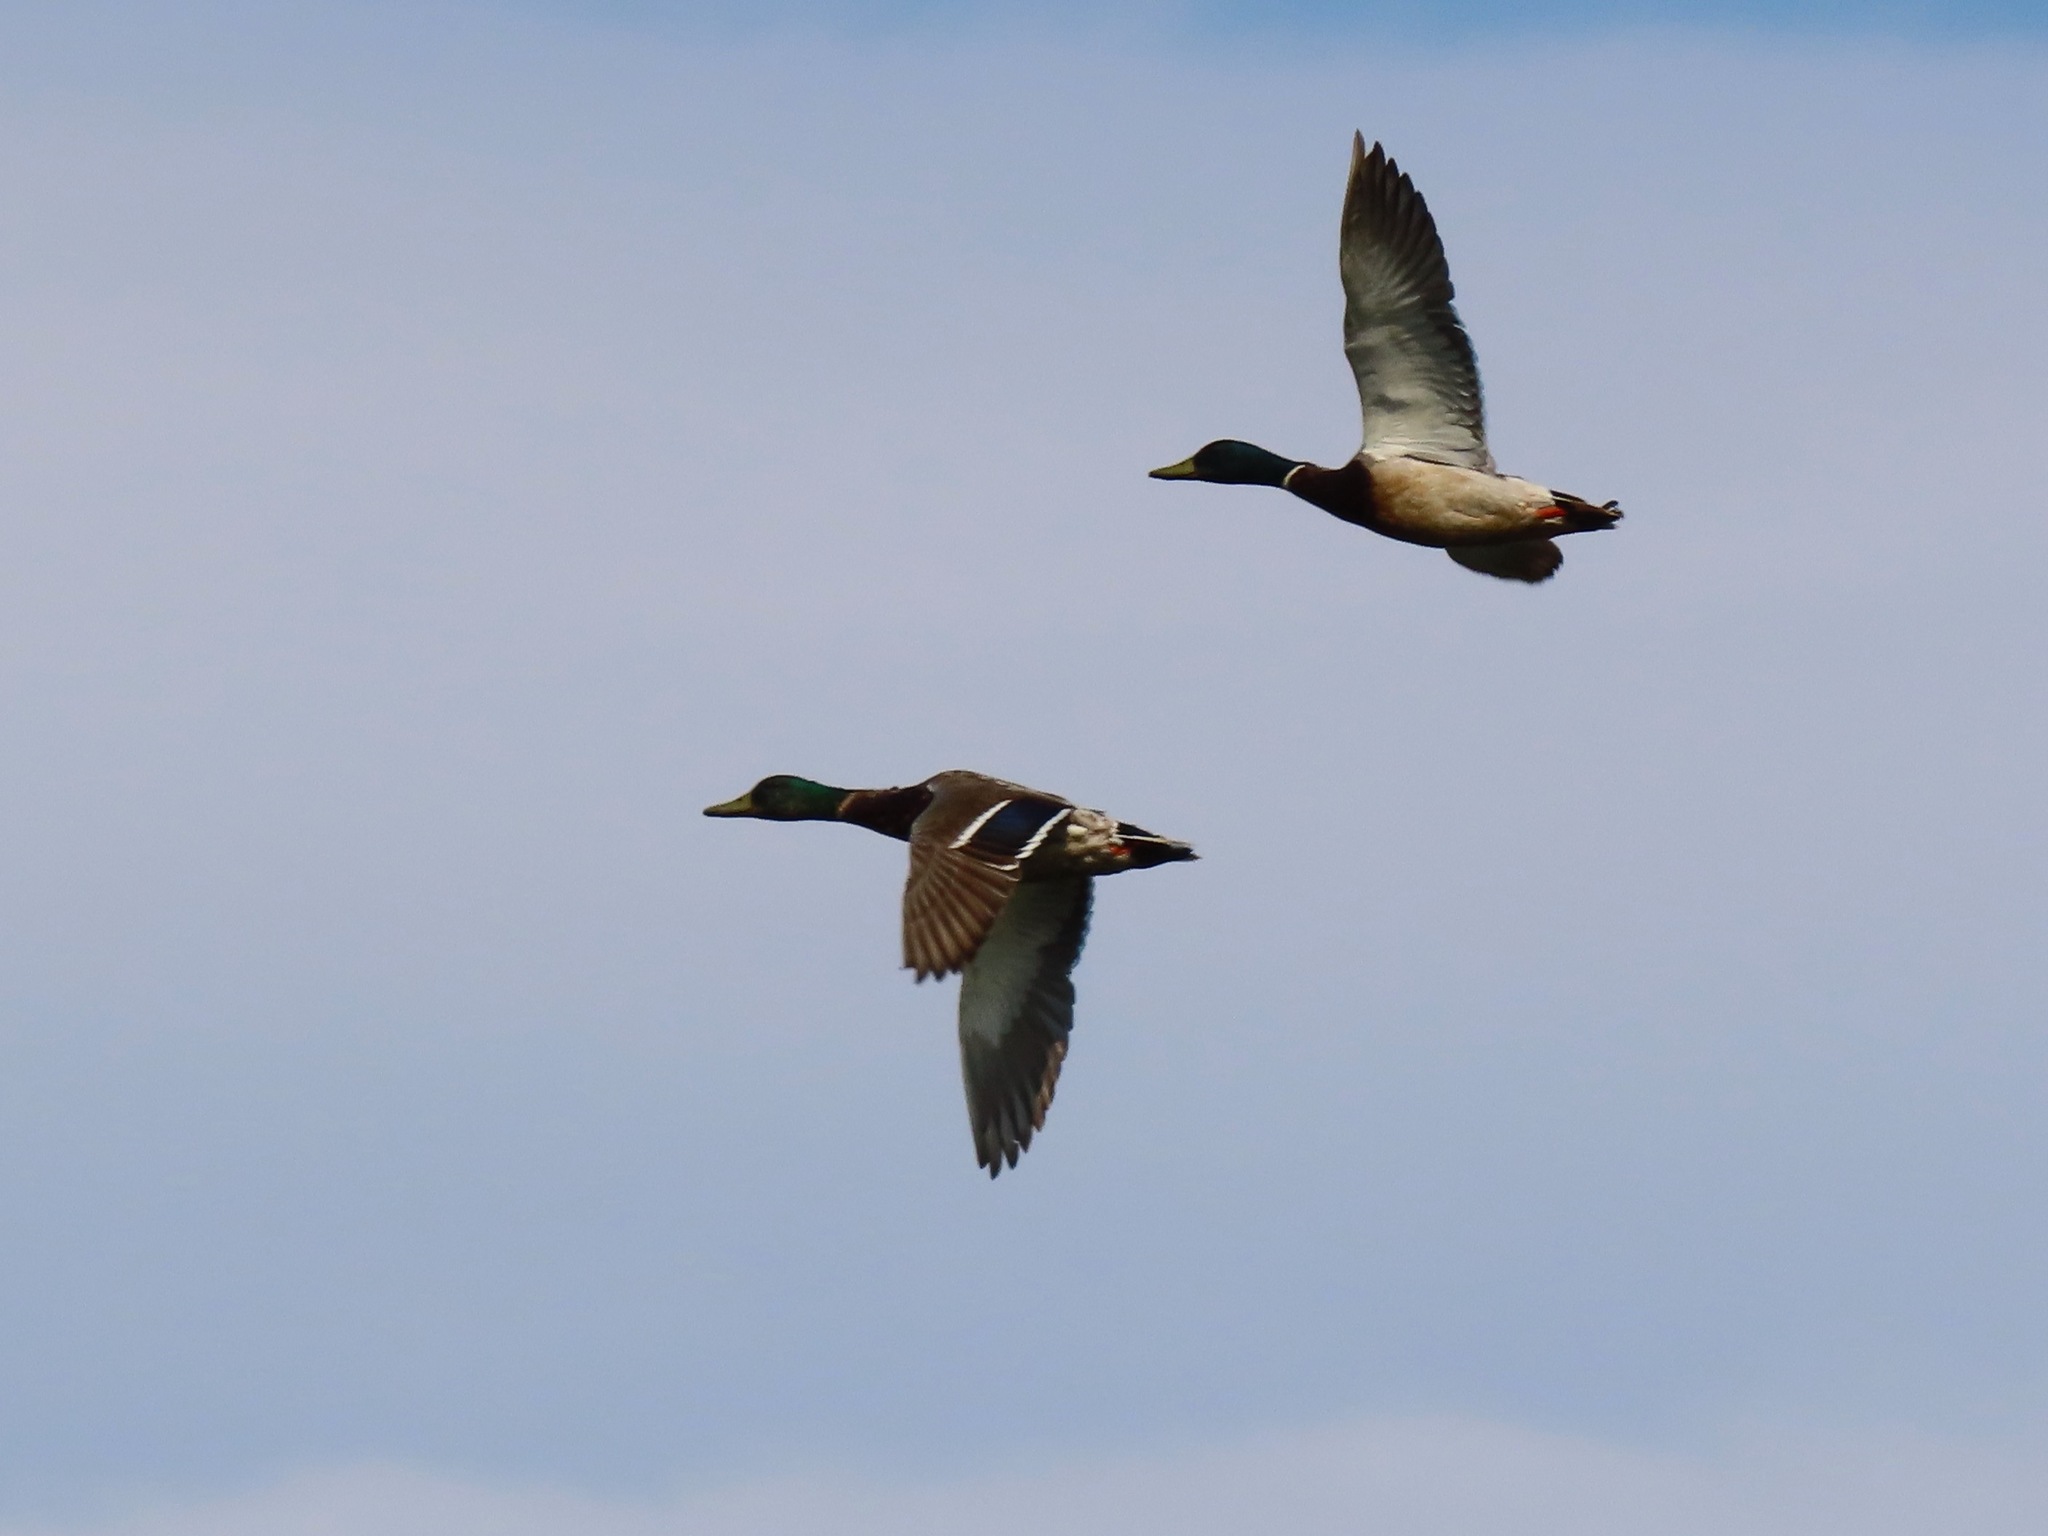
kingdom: Animalia
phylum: Chordata
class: Aves
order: Anseriformes
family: Anatidae
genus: Anas
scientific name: Anas platyrhynchos
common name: Mallard
